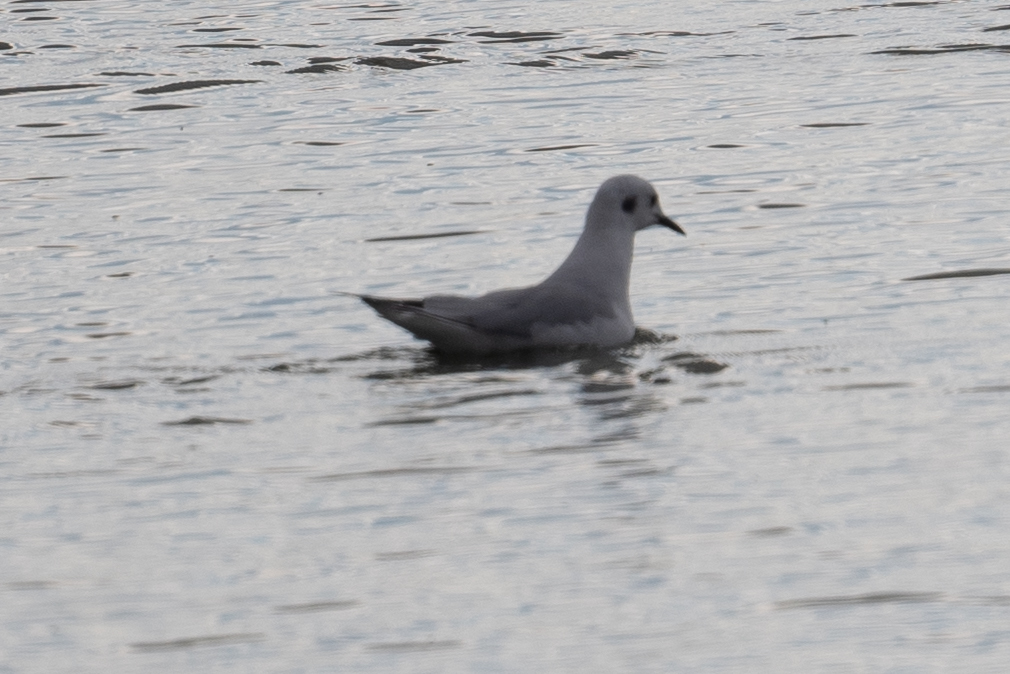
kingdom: Animalia
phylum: Chordata
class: Aves
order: Charadriiformes
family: Laridae
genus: Chroicocephalus
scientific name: Chroicocephalus philadelphia
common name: Bonaparte's gull
